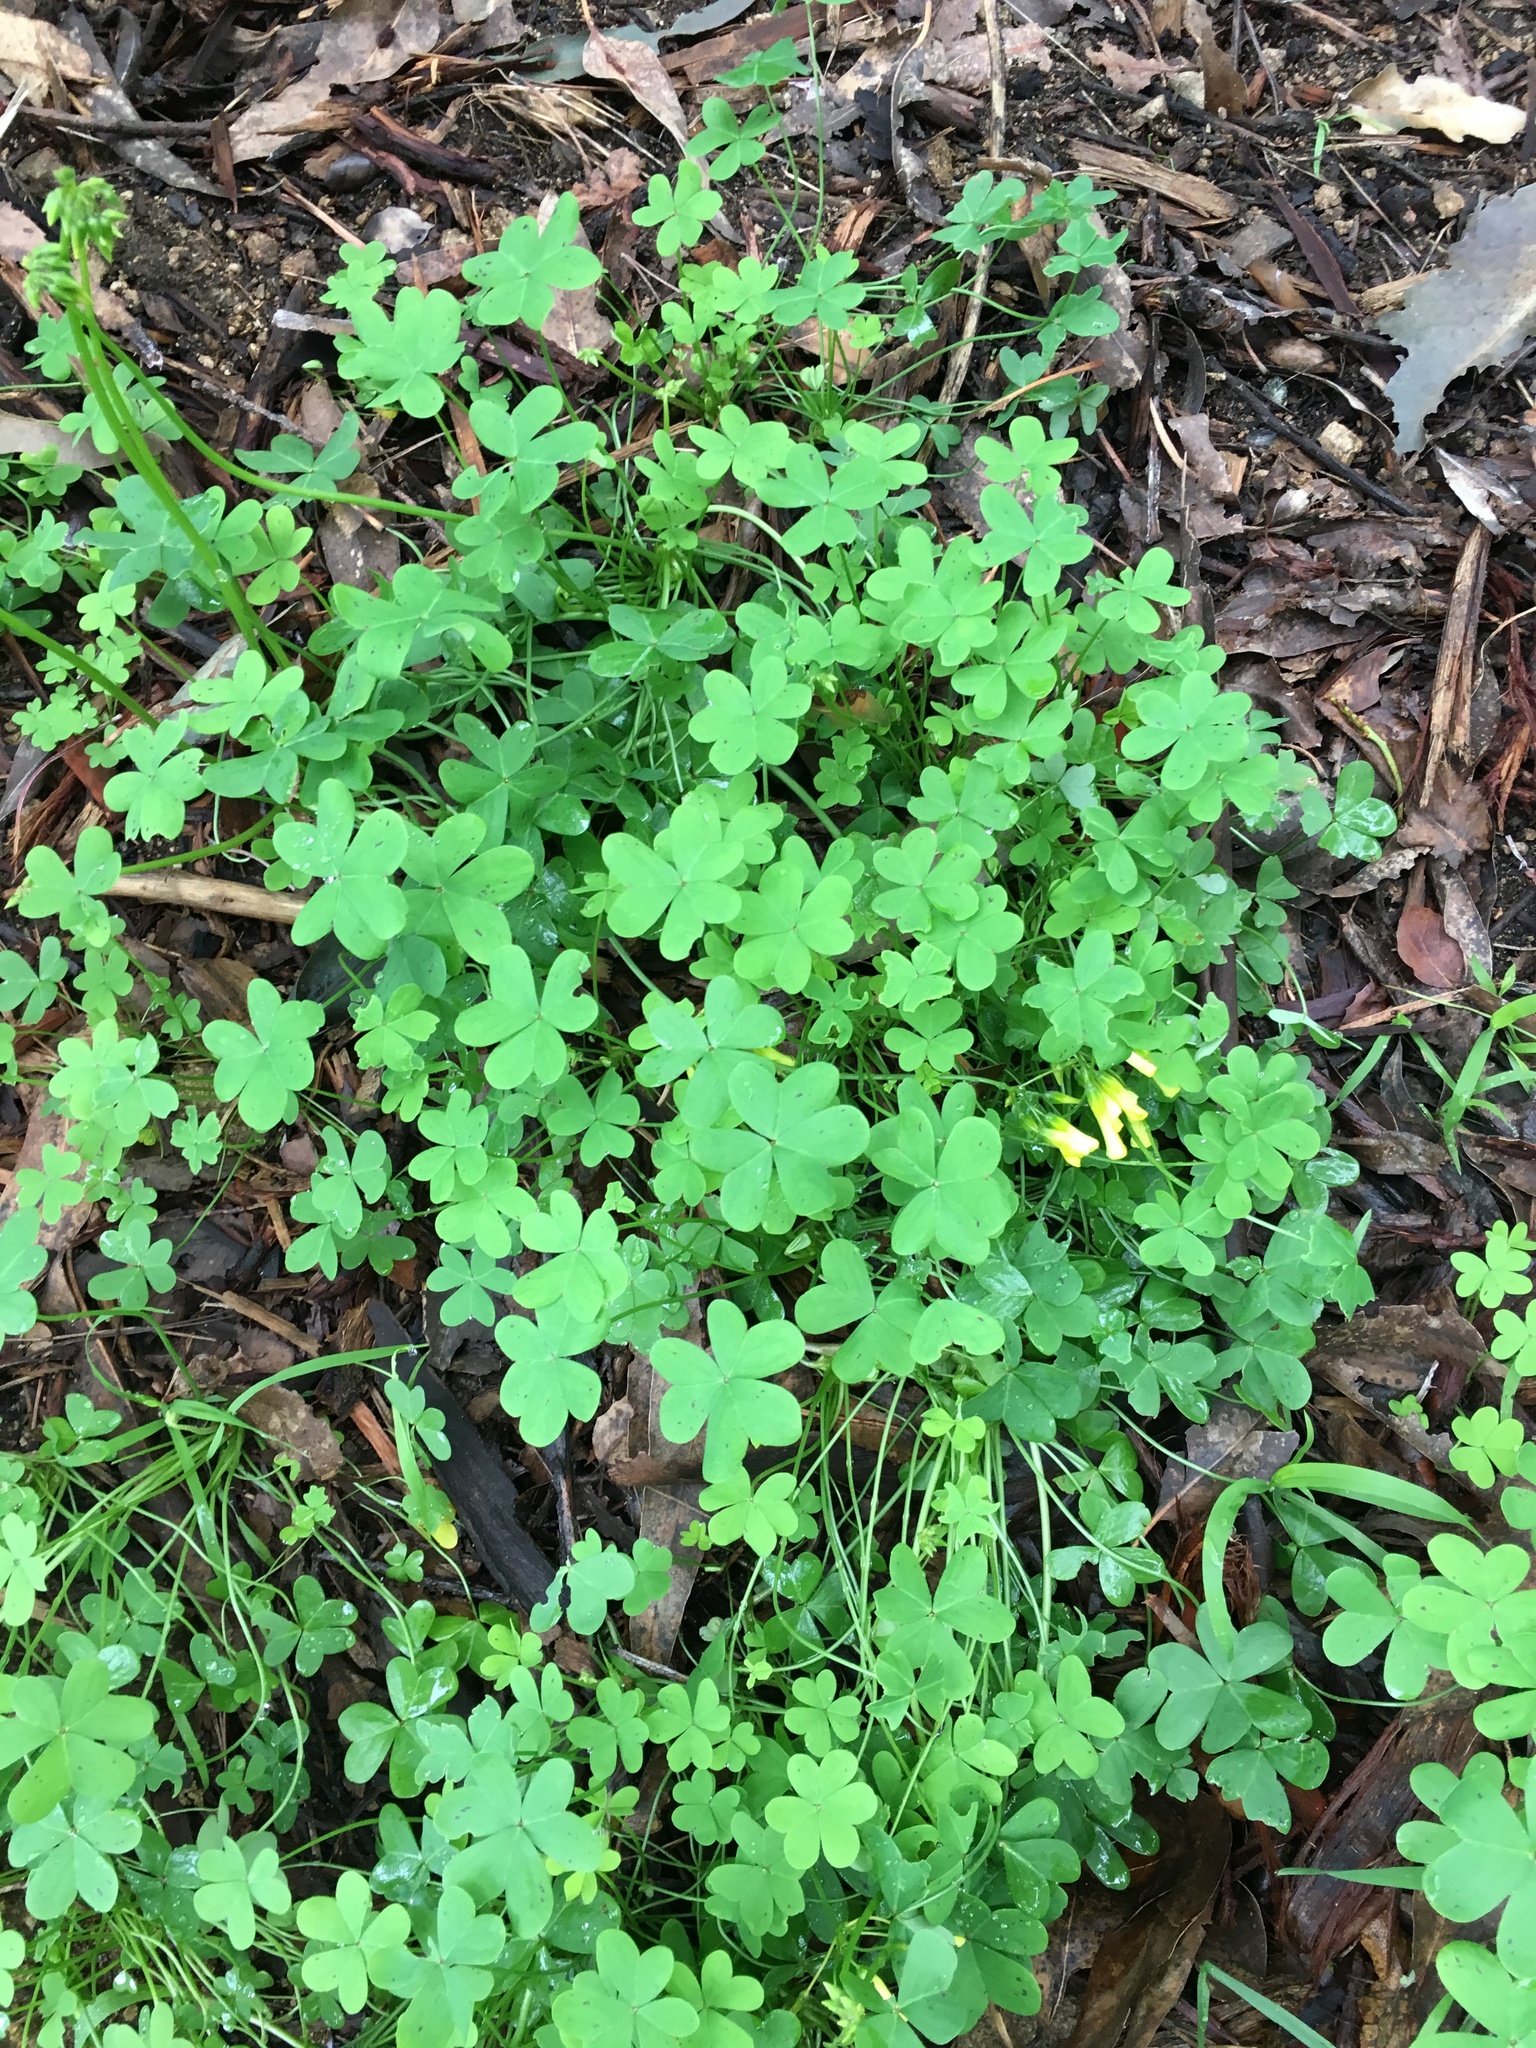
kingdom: Plantae
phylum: Tracheophyta
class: Magnoliopsida
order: Oxalidales
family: Oxalidaceae
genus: Oxalis
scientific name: Oxalis pes-caprae
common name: Bermuda-buttercup
